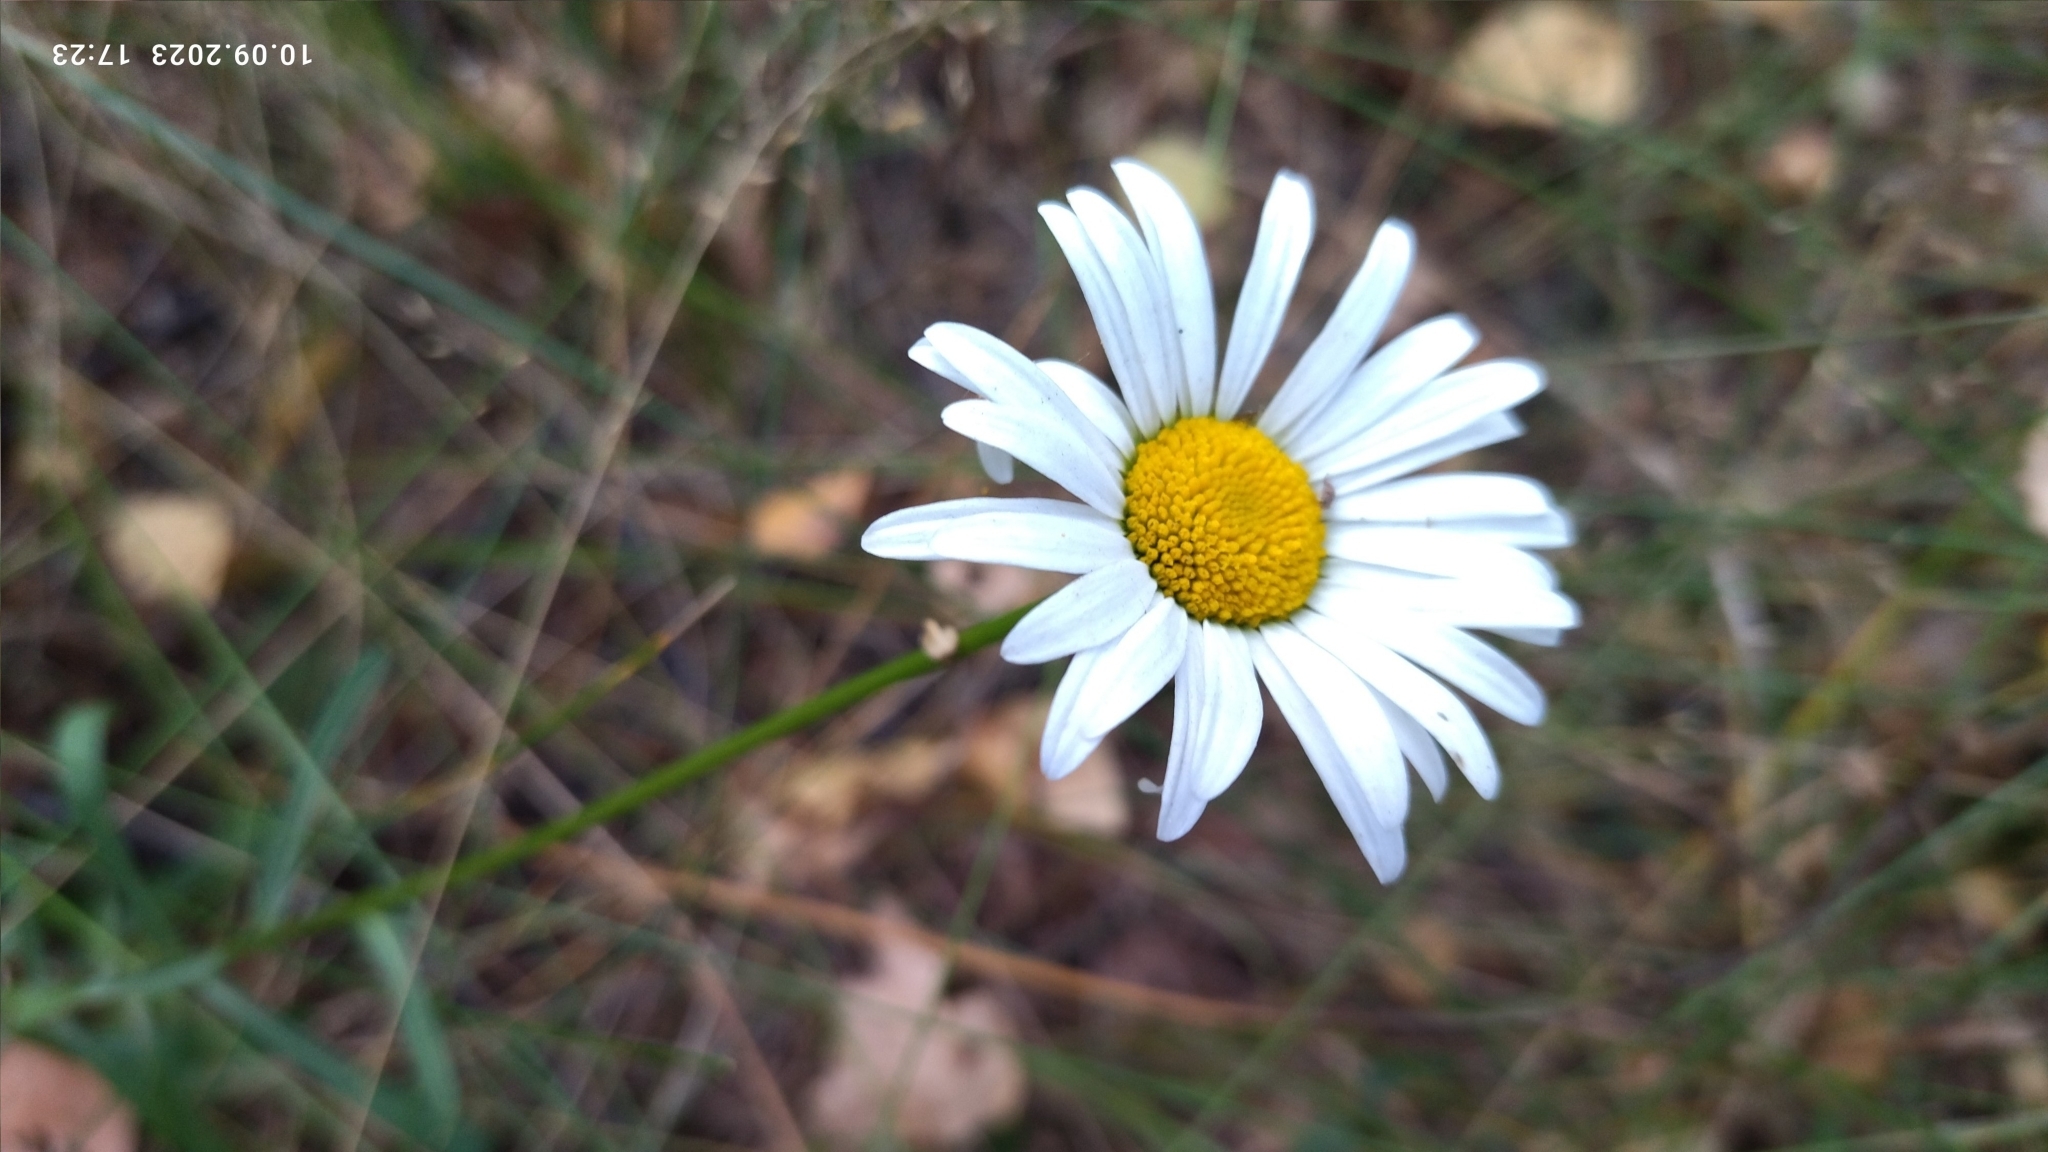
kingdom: Plantae
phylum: Tracheophyta
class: Magnoliopsida
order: Asterales
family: Asteraceae
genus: Leucanthemum
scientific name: Leucanthemum vulgare
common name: Oxeye daisy
